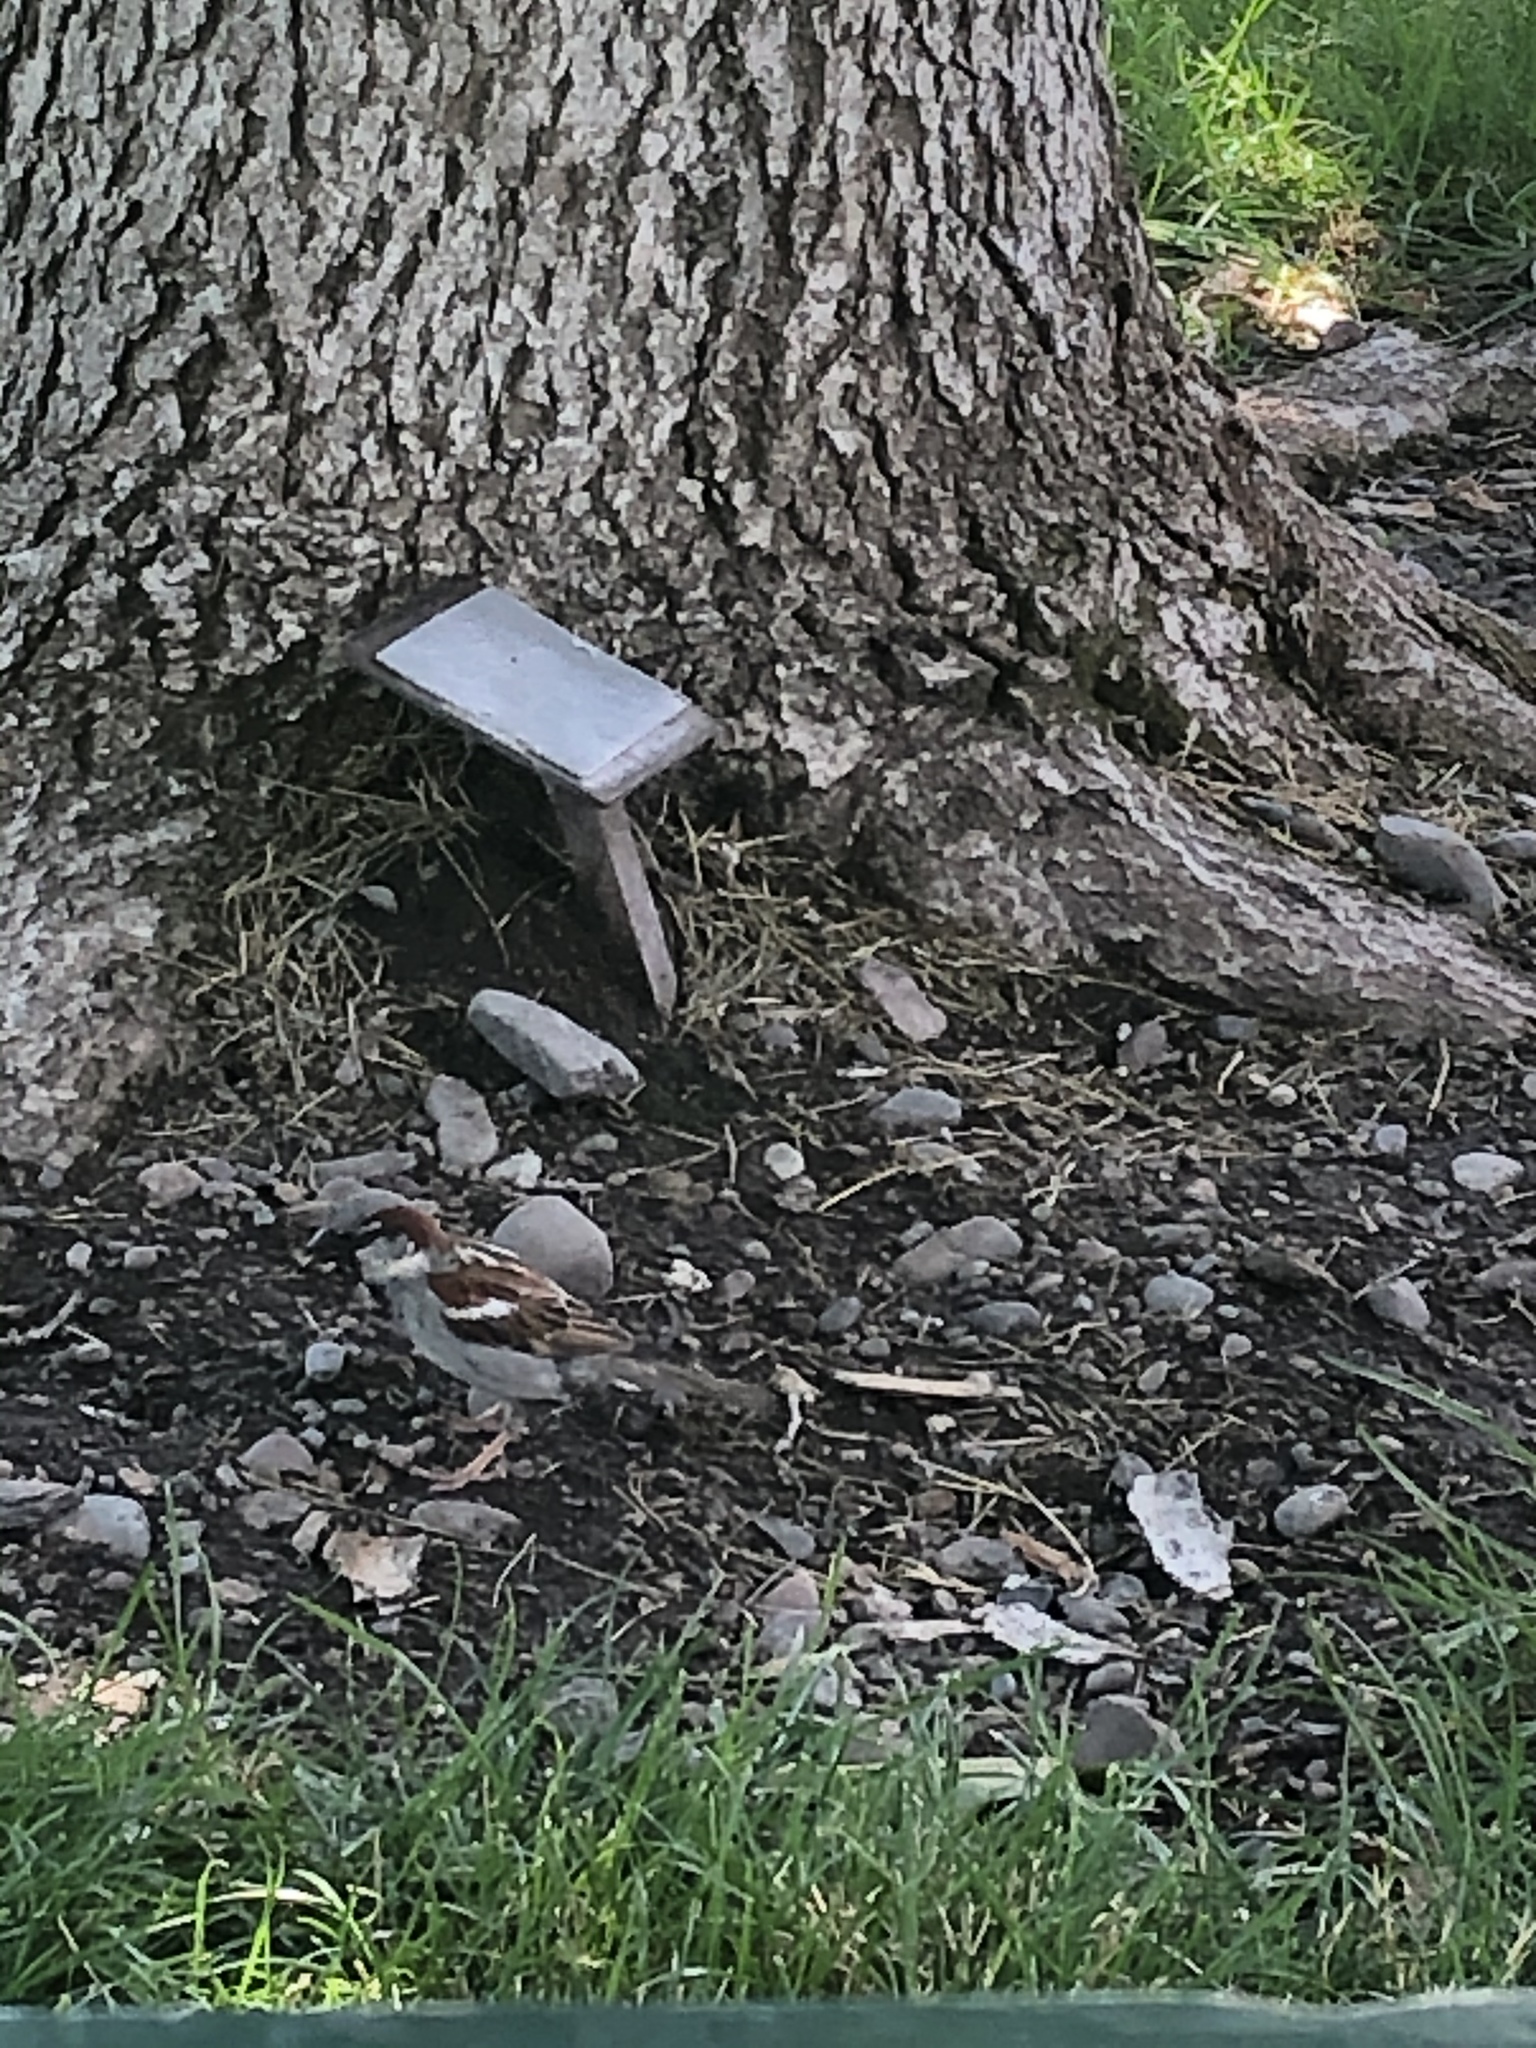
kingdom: Animalia
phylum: Chordata
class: Aves
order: Passeriformes
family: Passeridae
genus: Passer
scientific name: Passer domesticus
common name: House sparrow
